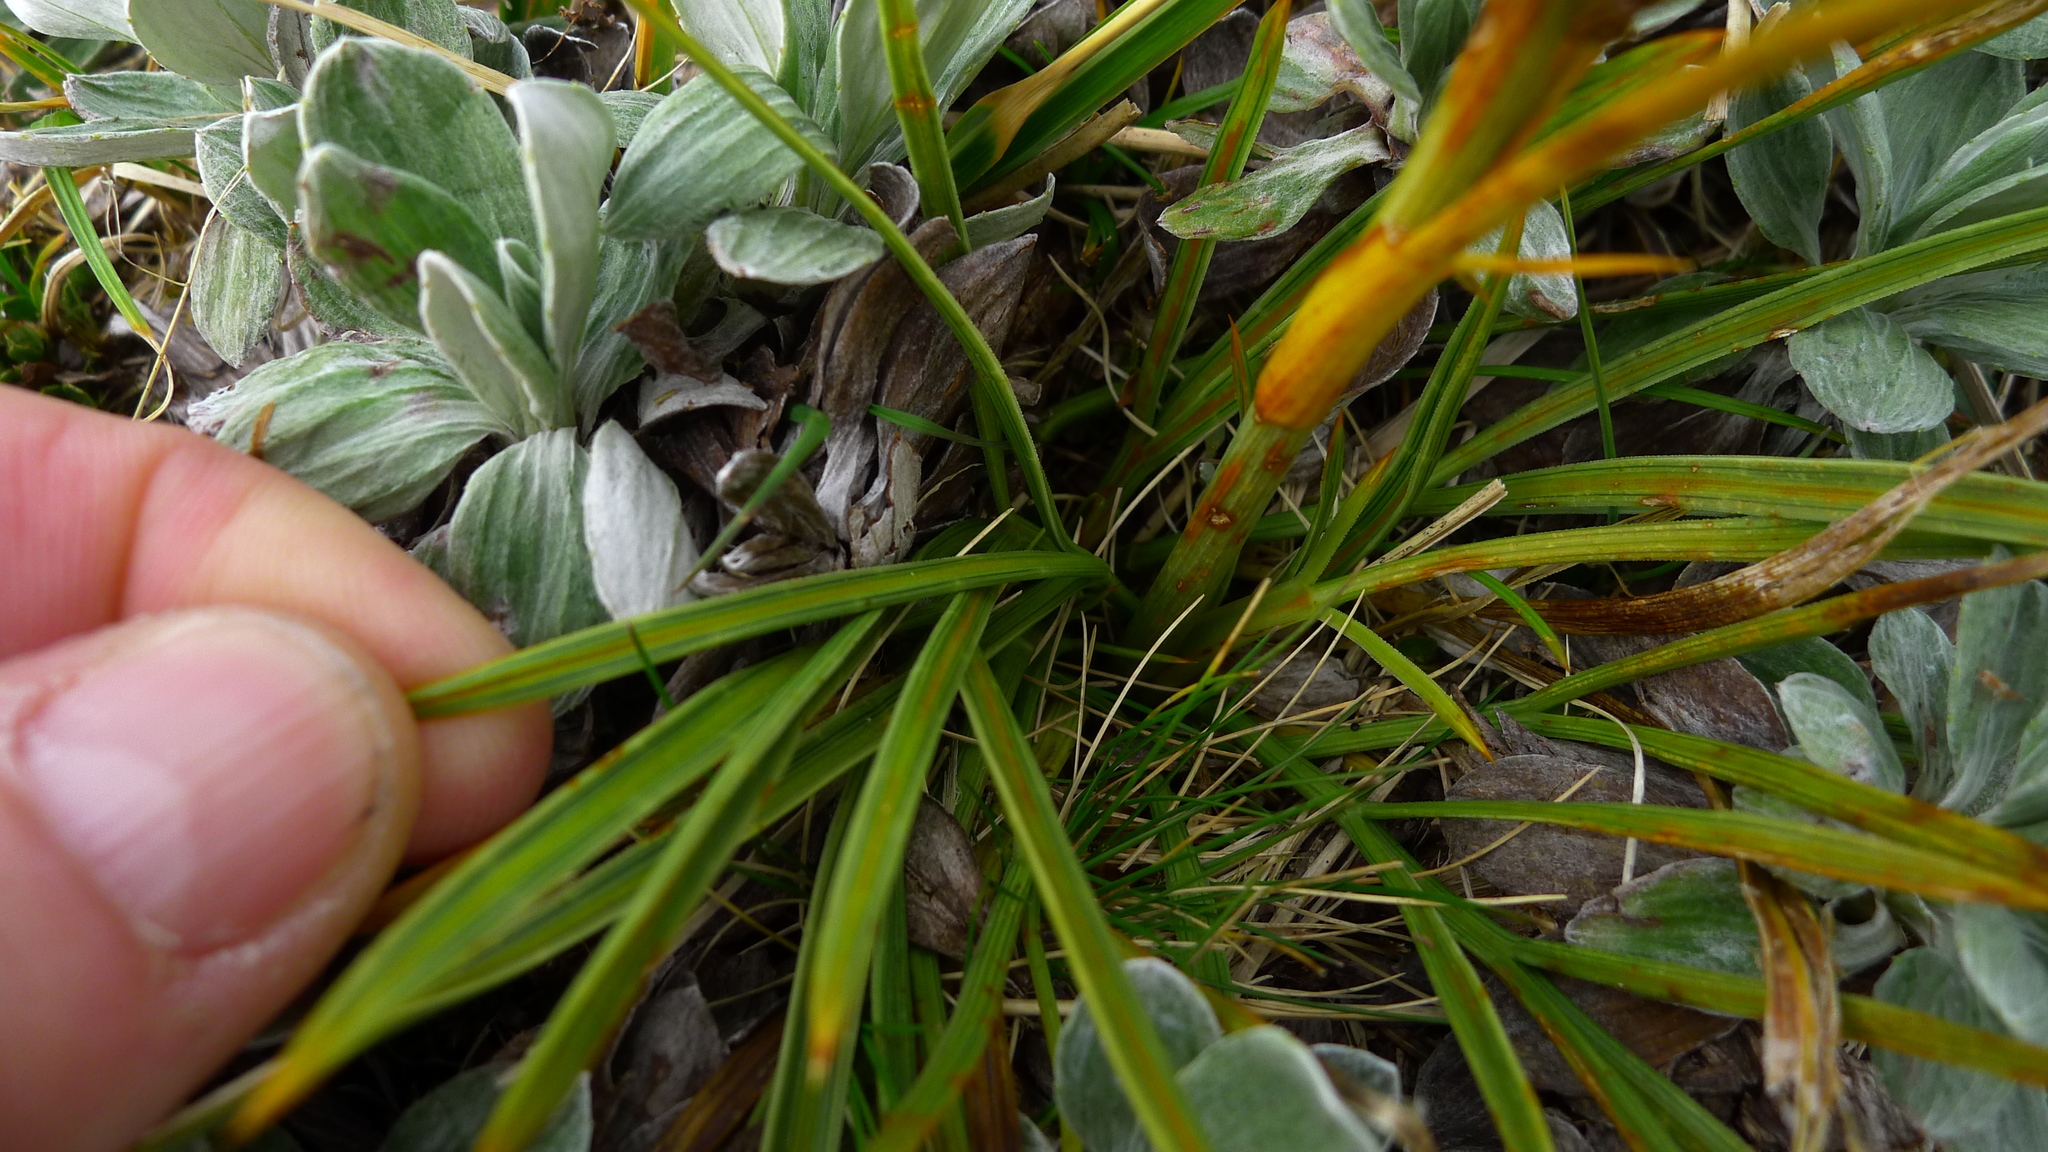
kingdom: Plantae
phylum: Tracheophyta
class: Magnoliopsida
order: Apiales
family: Apiaceae
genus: Aciphylla
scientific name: Aciphylla crenulata
